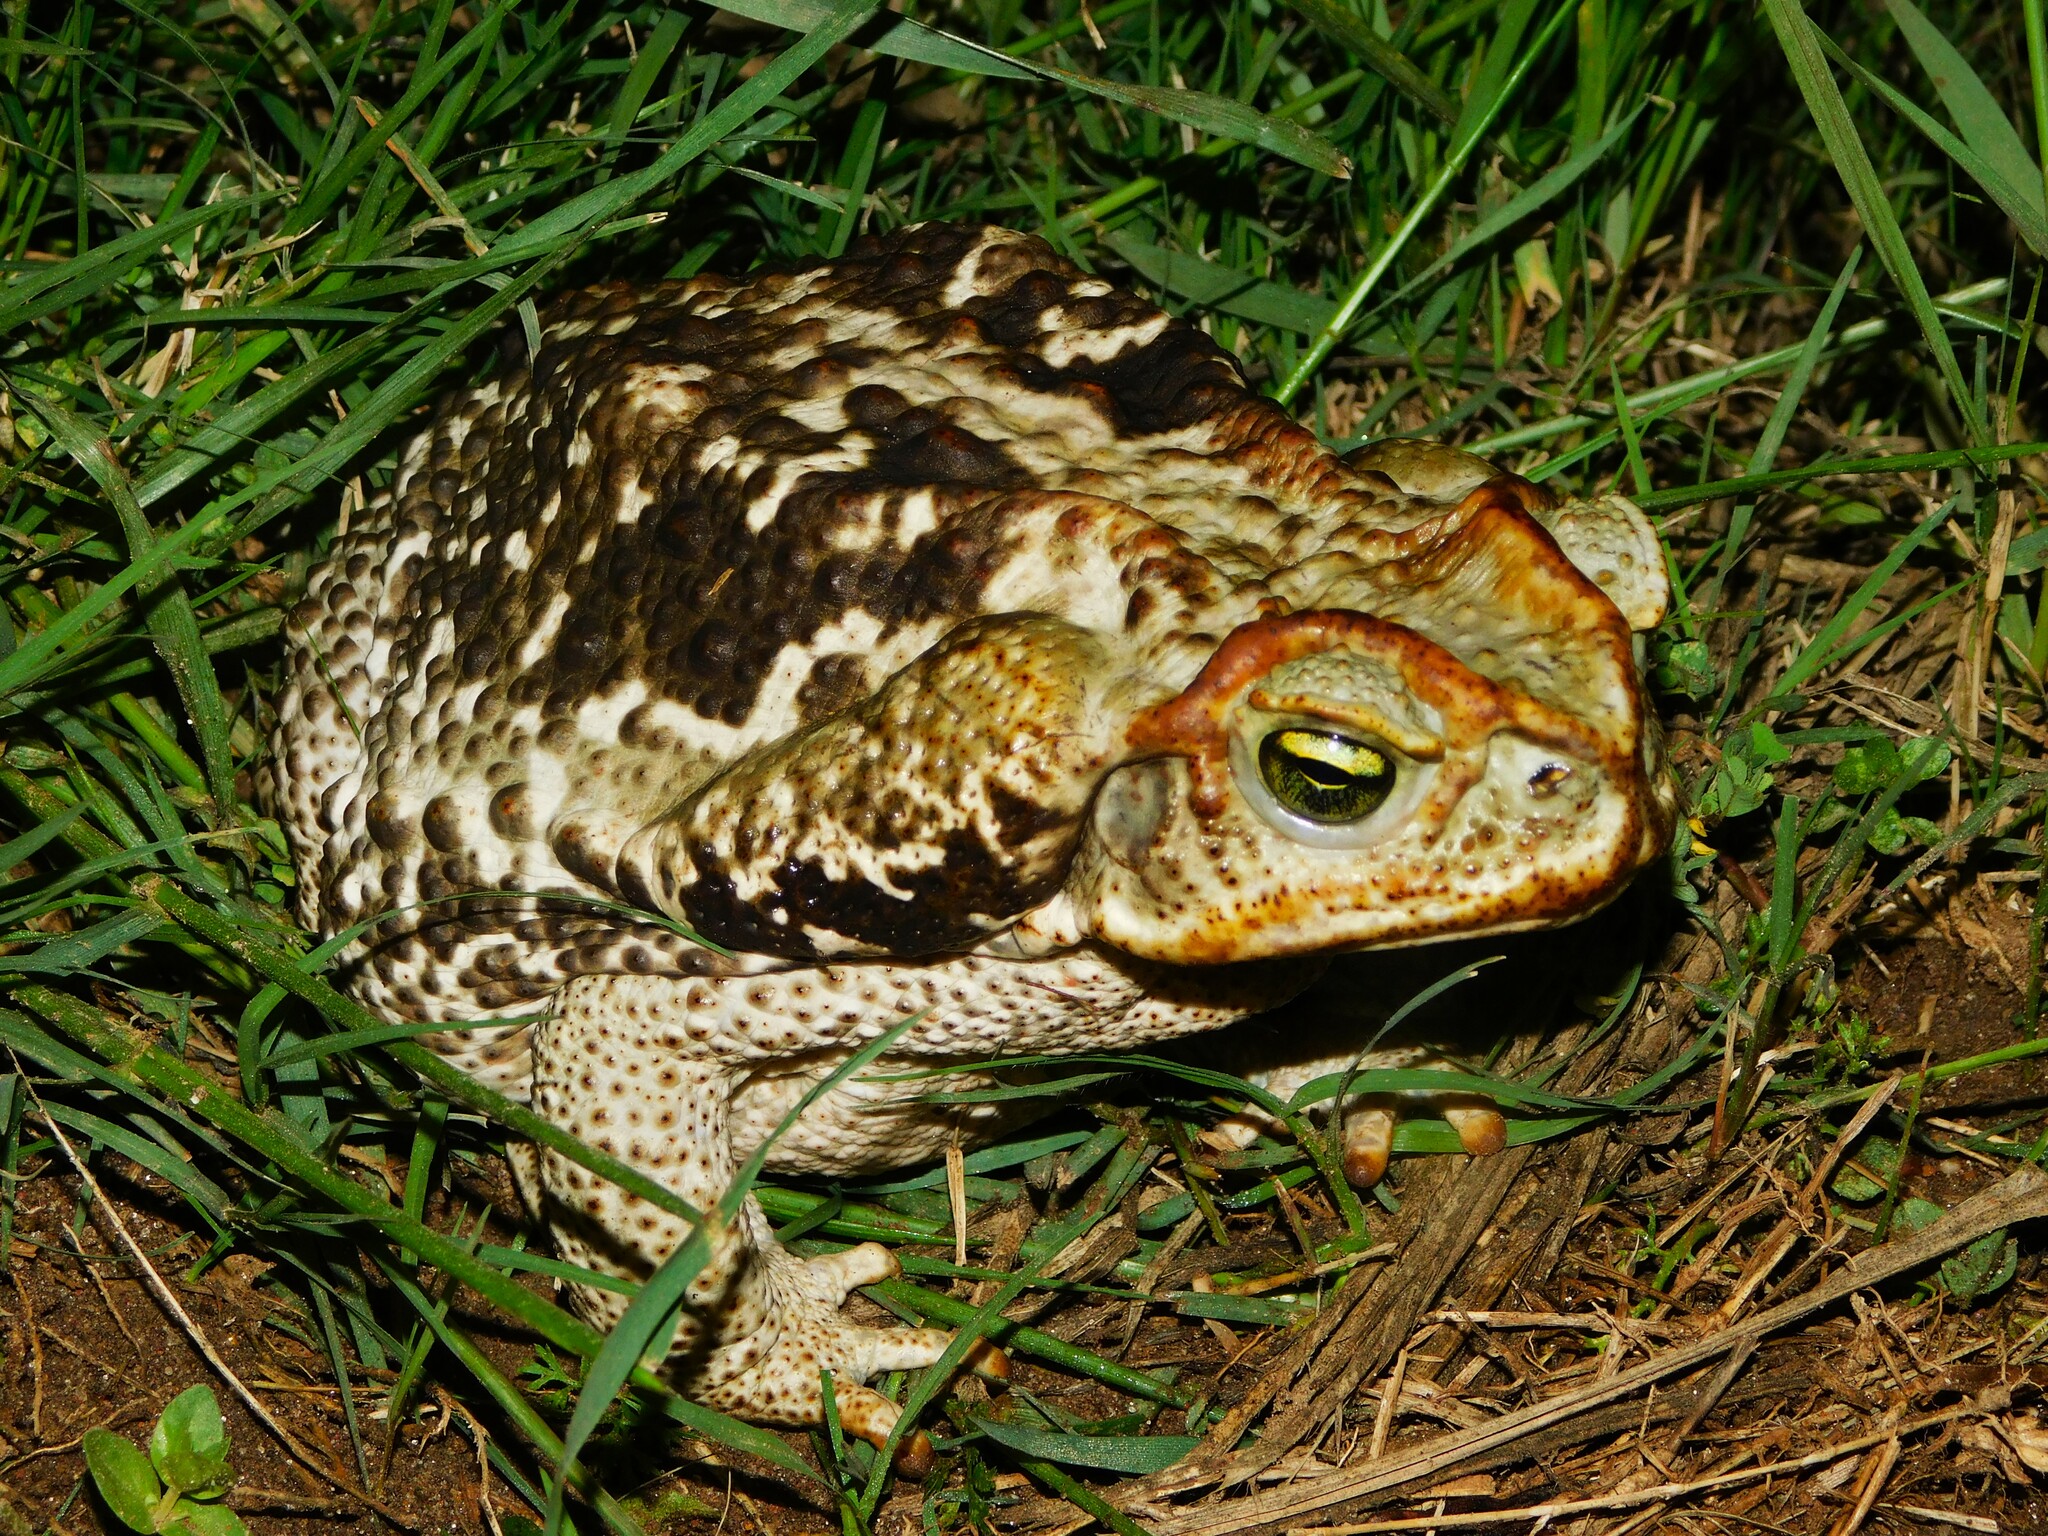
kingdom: Animalia
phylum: Chordata
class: Amphibia
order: Anura
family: Bufonidae
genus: Rhinella
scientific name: Rhinella diptycha
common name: Cope's toad
